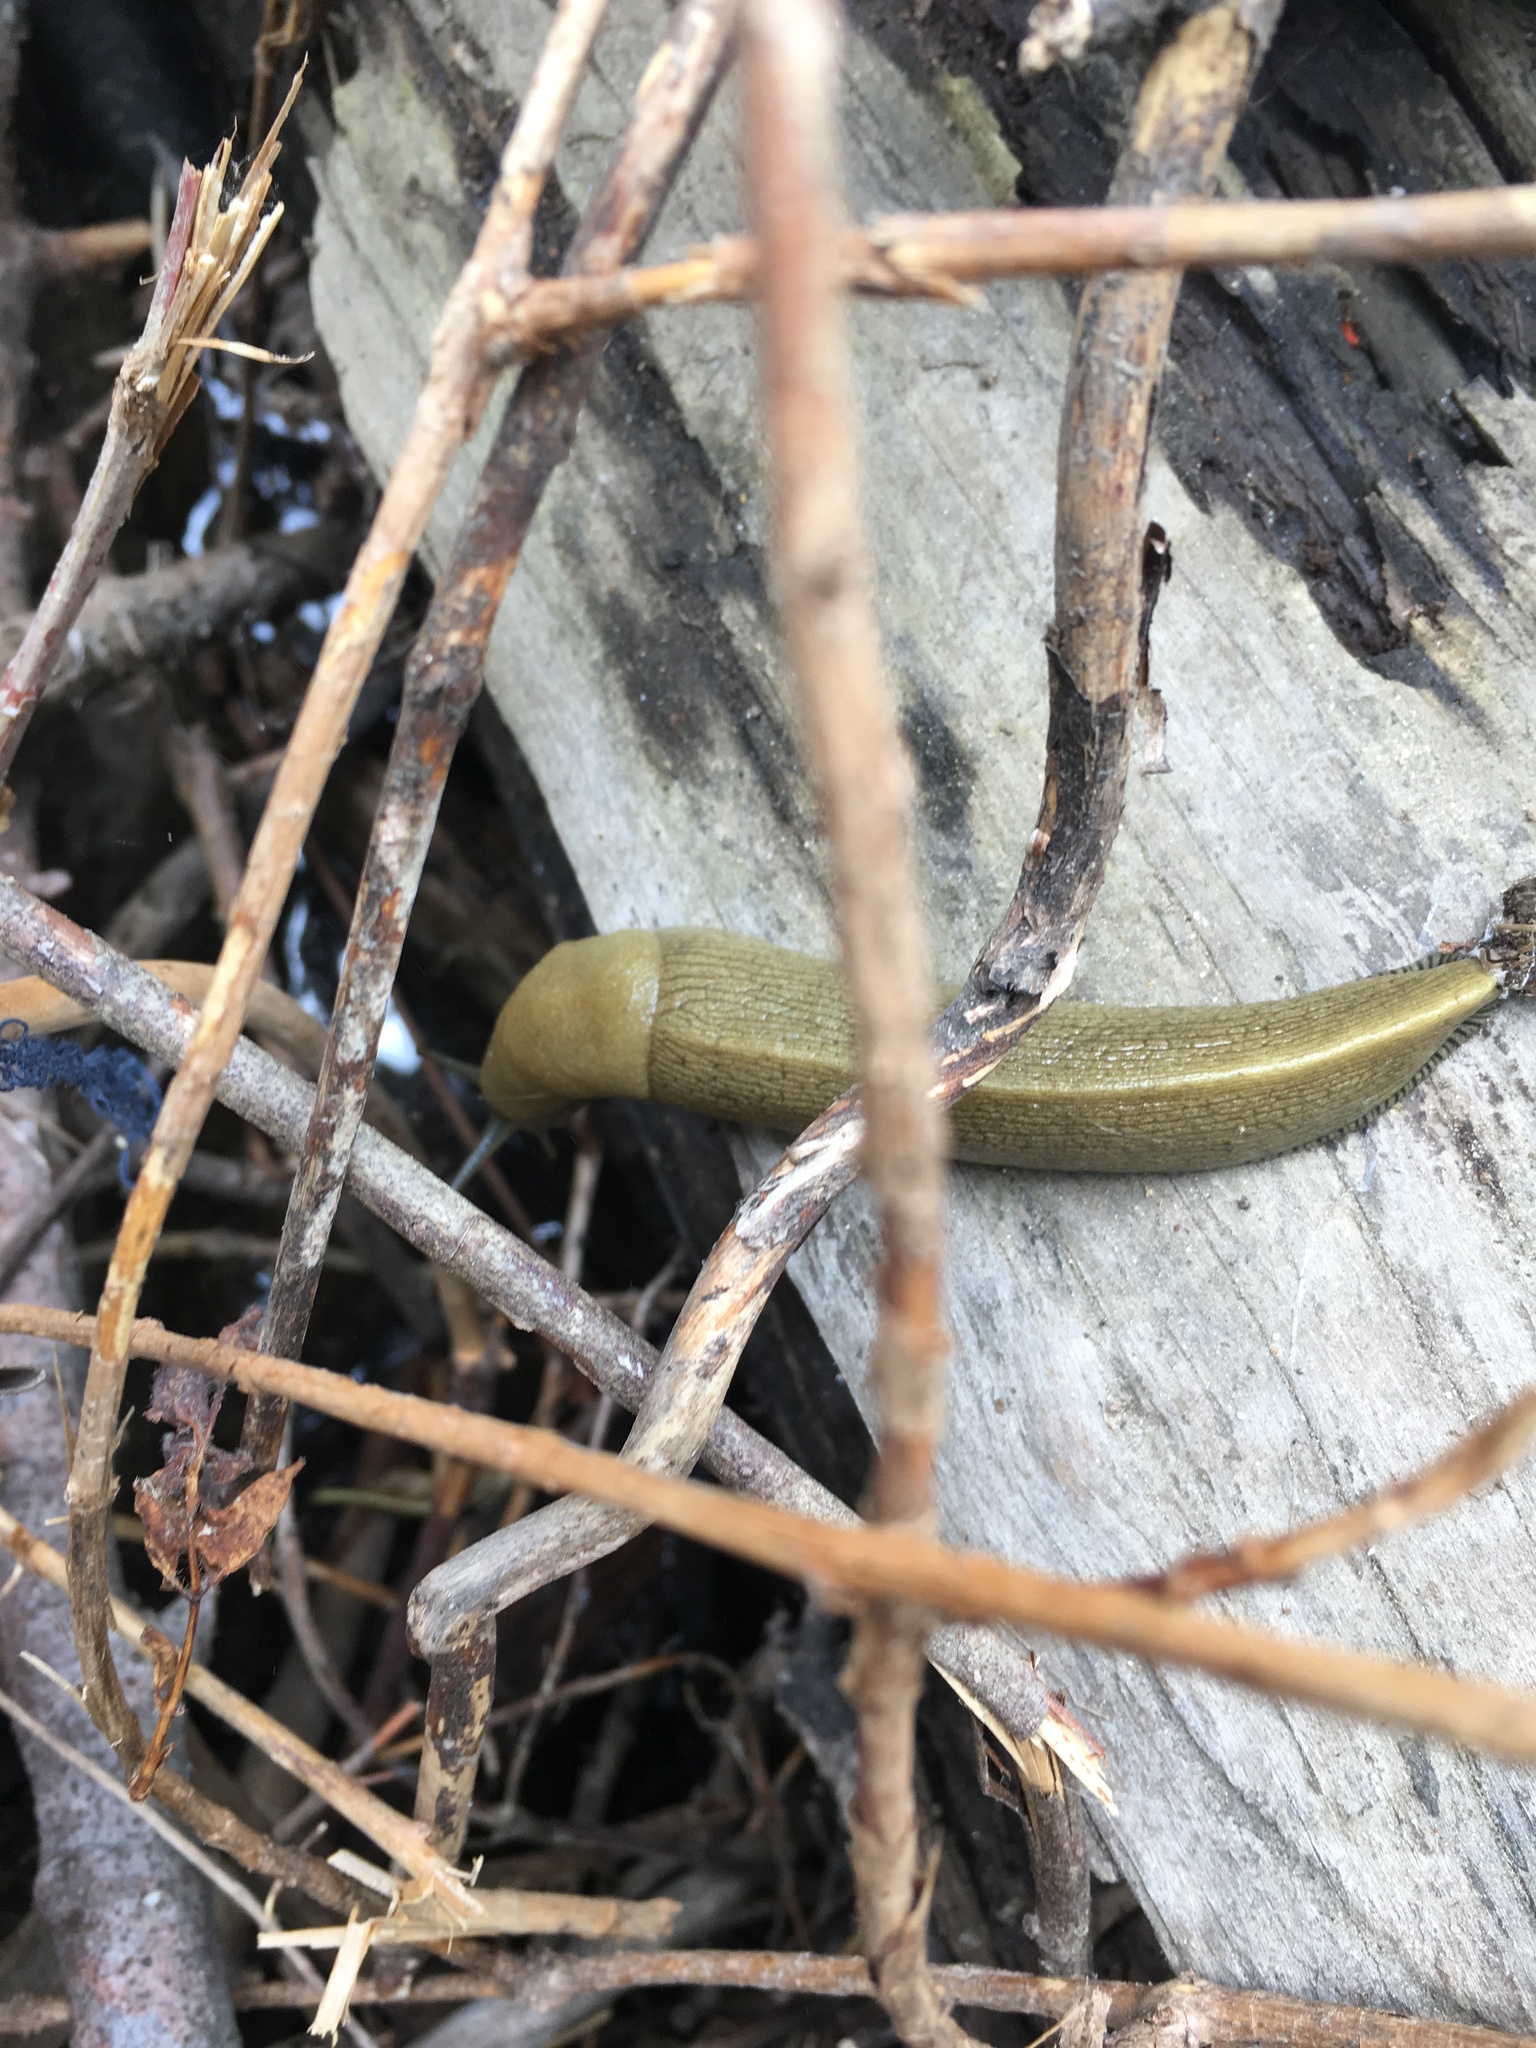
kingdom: Animalia
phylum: Mollusca
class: Gastropoda
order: Stylommatophora
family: Ariolimacidae
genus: Ariolimax
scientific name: Ariolimax
